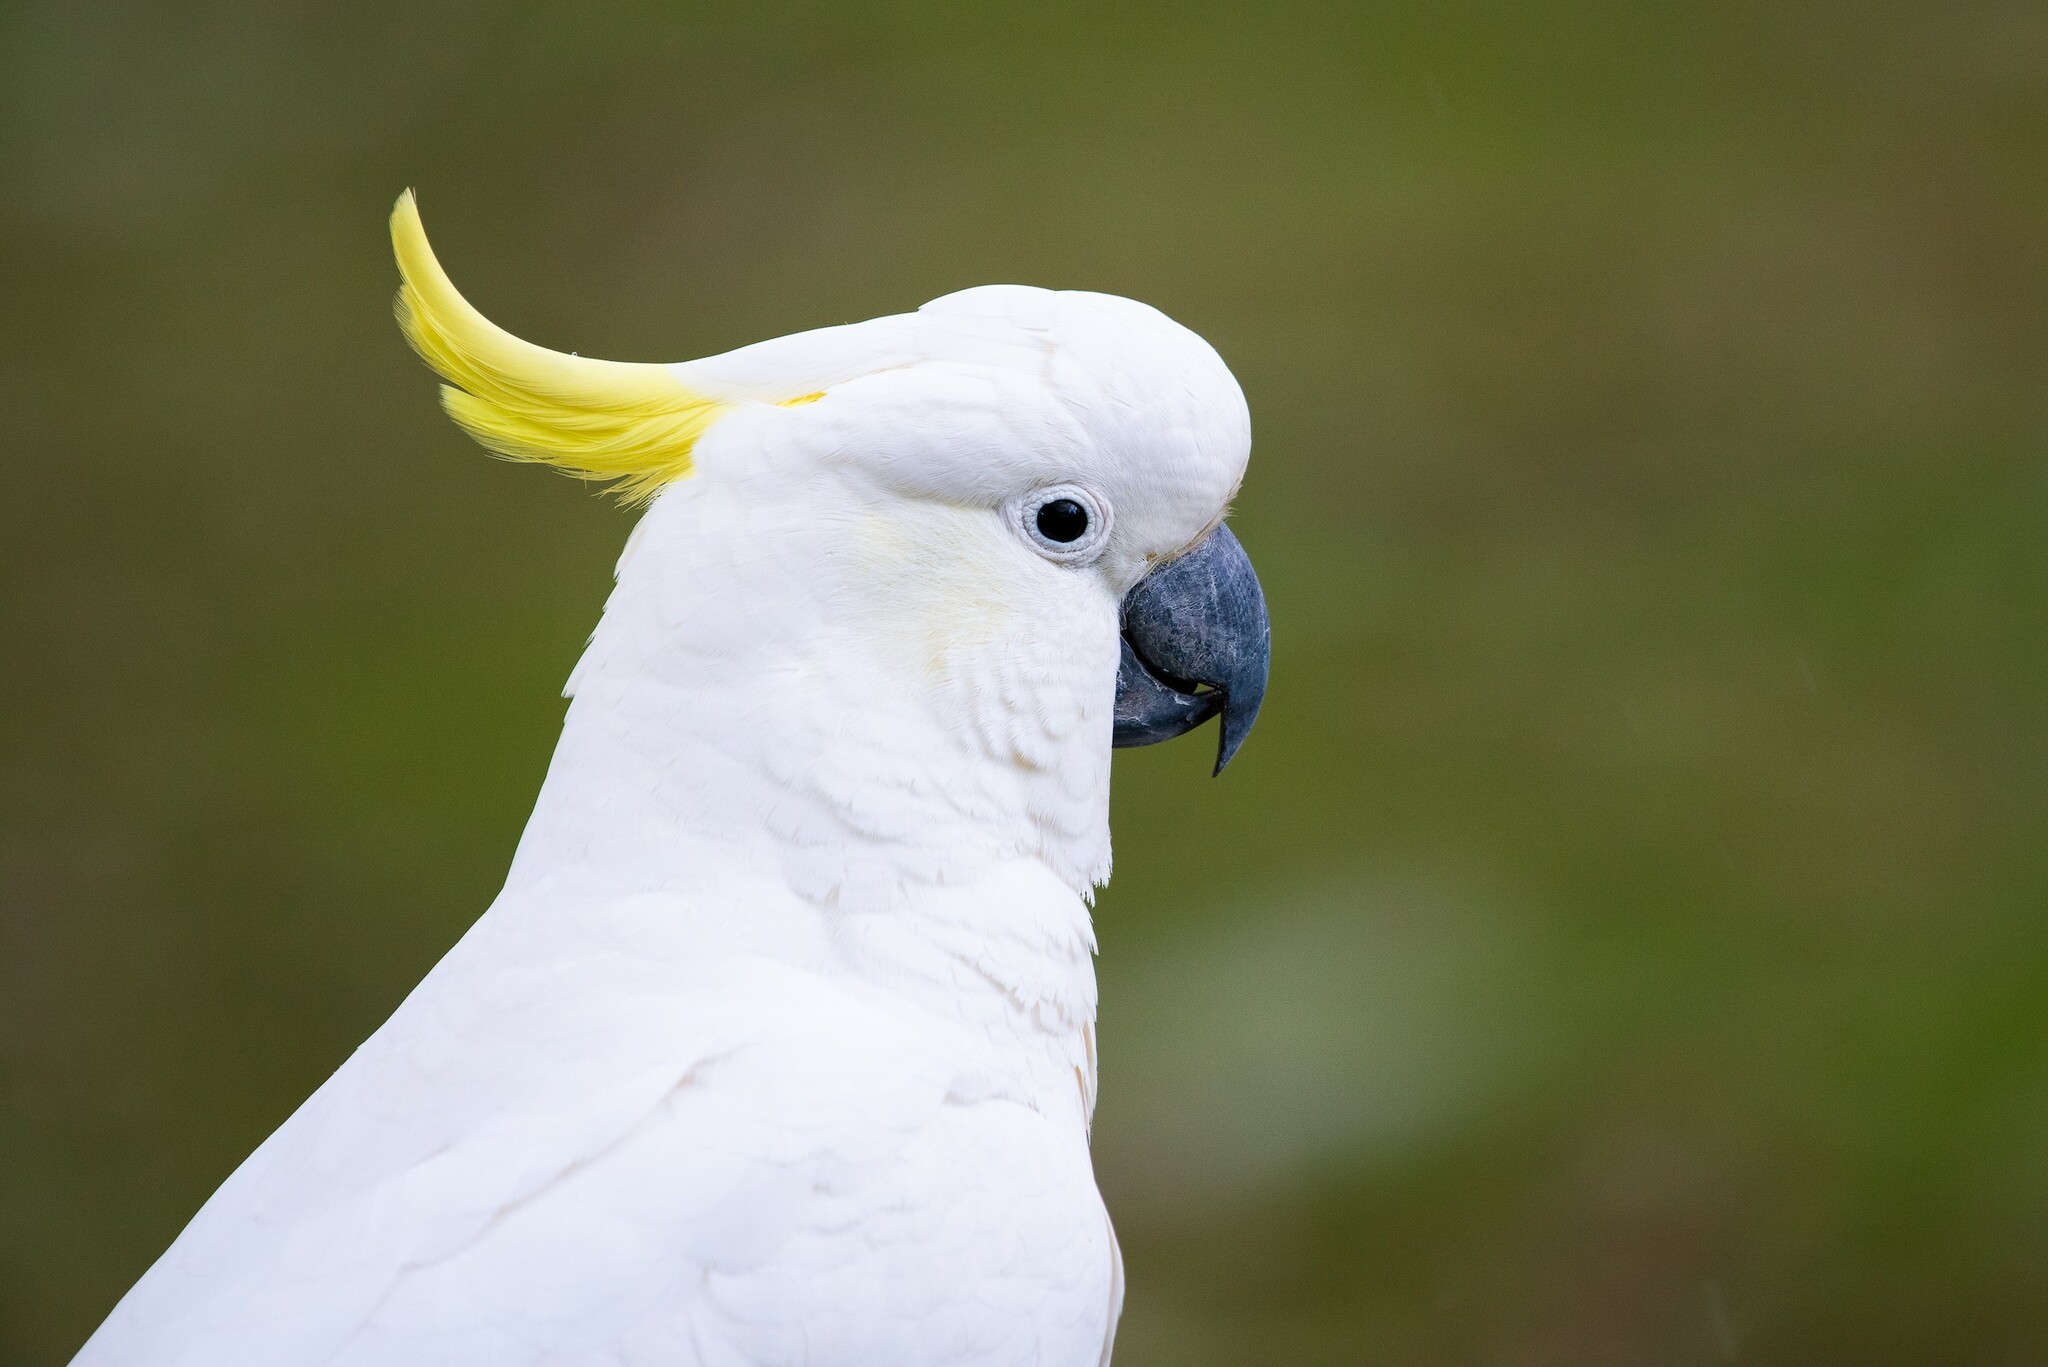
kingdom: Animalia
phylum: Chordata
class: Aves
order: Psittaciformes
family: Psittacidae
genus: Cacatua
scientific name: Cacatua galerita
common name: Sulphur-crested cockatoo
